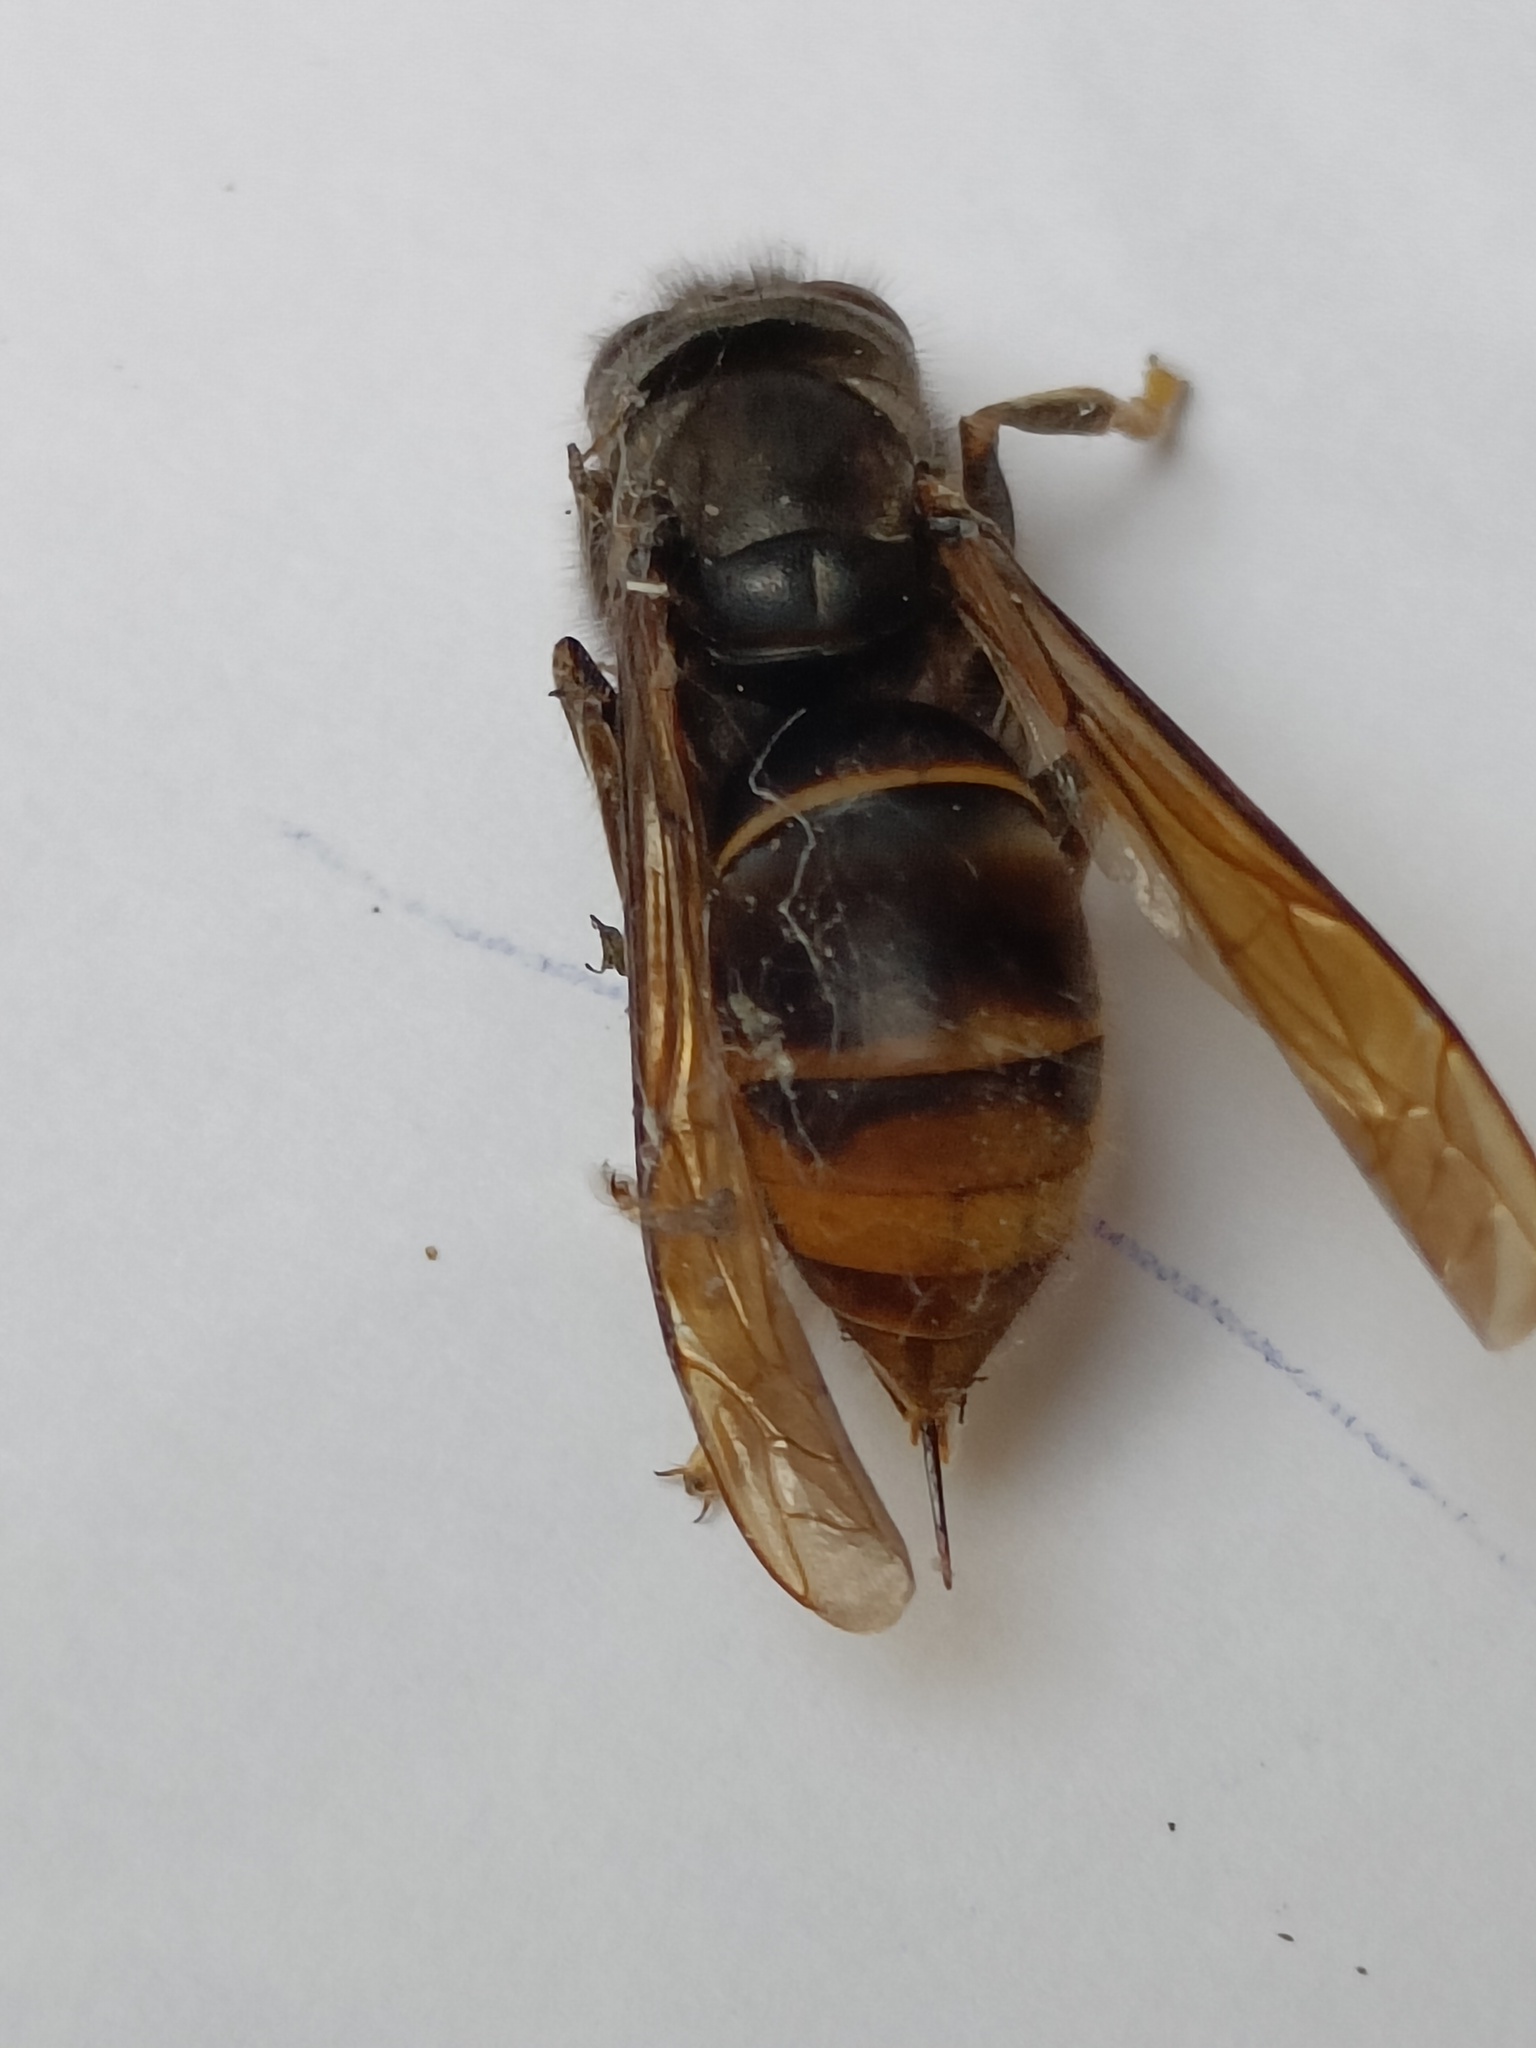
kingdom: Animalia
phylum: Arthropoda
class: Insecta
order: Hymenoptera
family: Vespidae
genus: Vespa
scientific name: Vespa velutina
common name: Asian hornet
